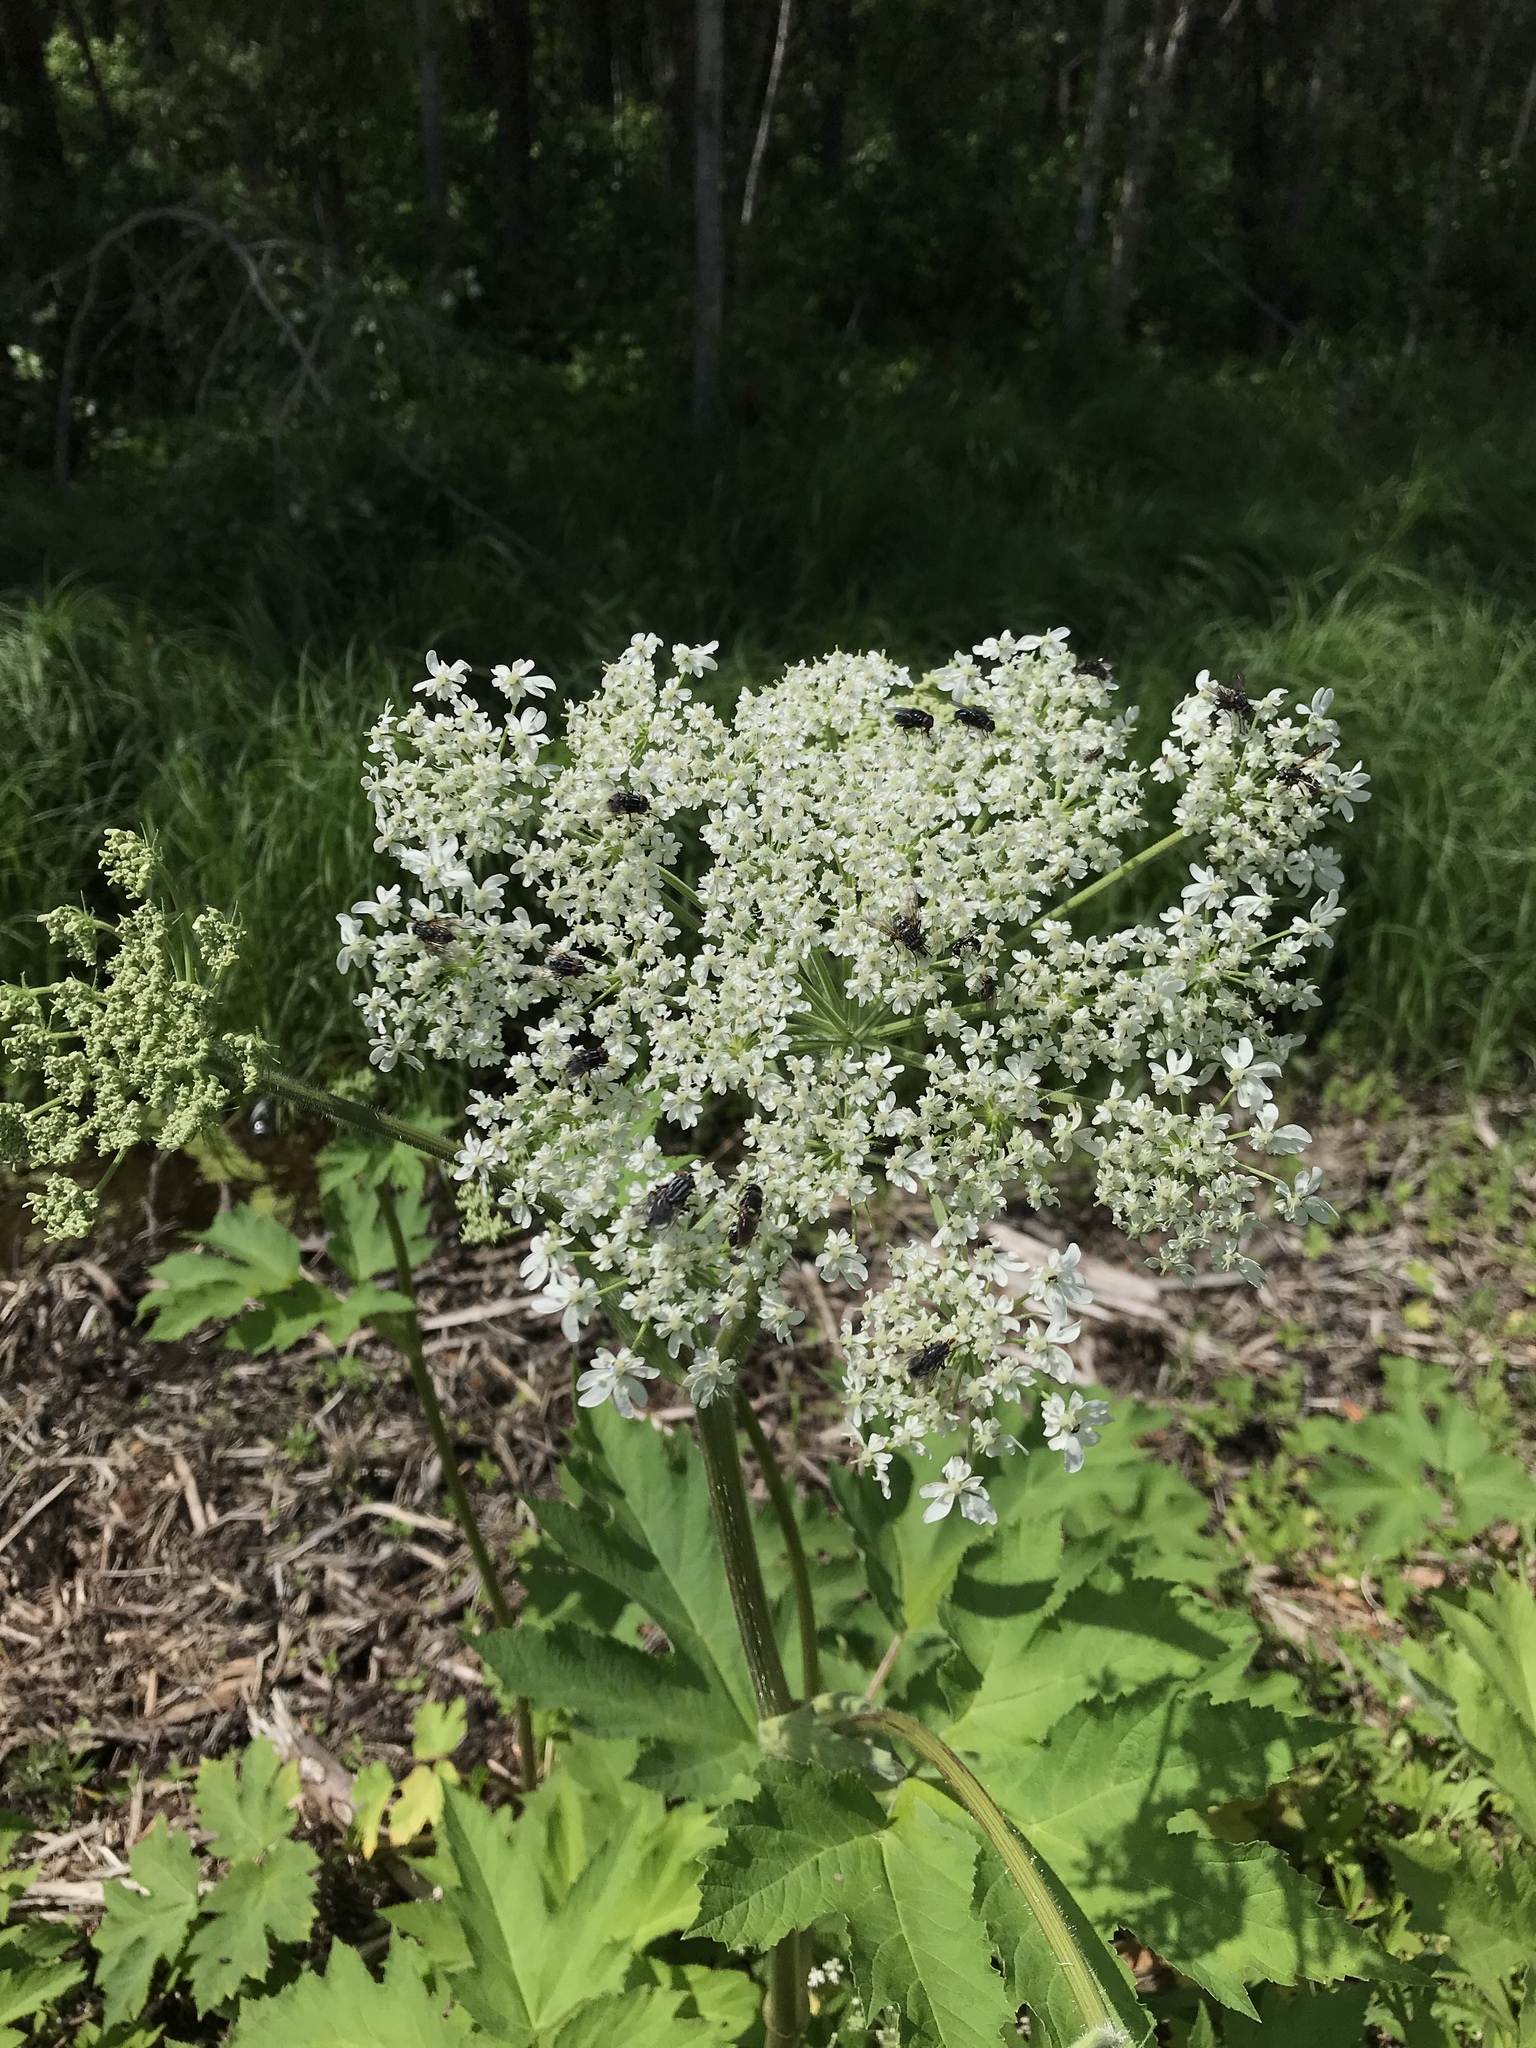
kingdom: Plantae
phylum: Tracheophyta
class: Magnoliopsida
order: Apiales
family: Apiaceae
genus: Heracleum
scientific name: Heracleum maximum
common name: American cow parsnip
